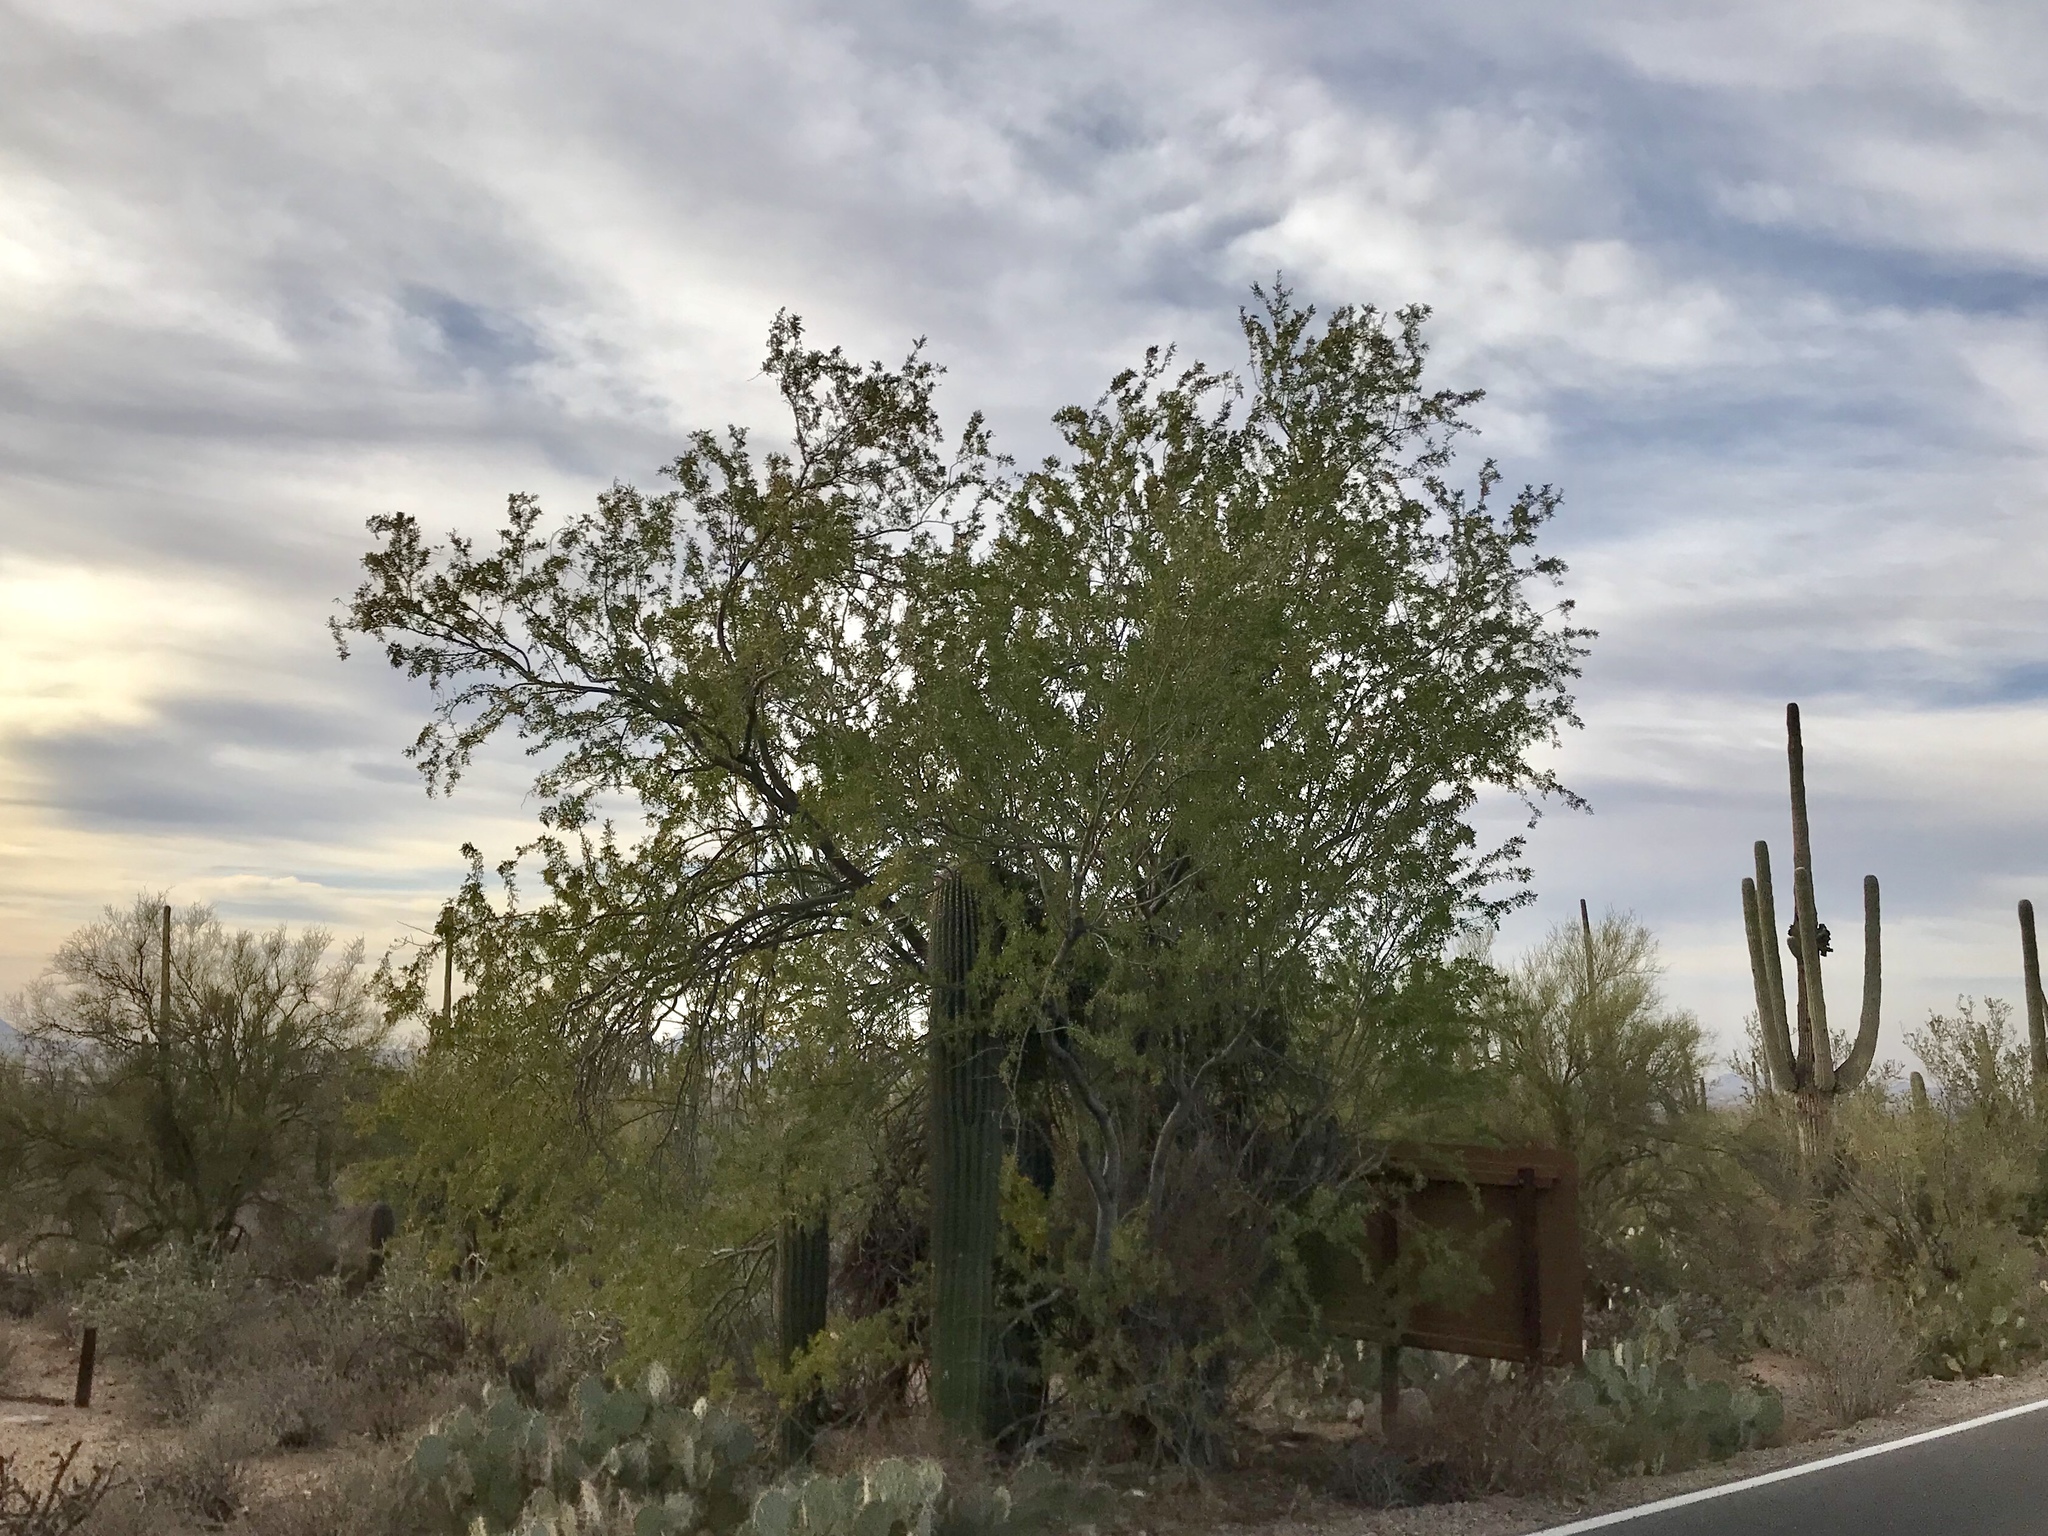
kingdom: Plantae
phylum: Tracheophyta
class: Magnoliopsida
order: Fabales
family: Fabaceae
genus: Olneya
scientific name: Olneya tesota
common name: Desert ironwood
